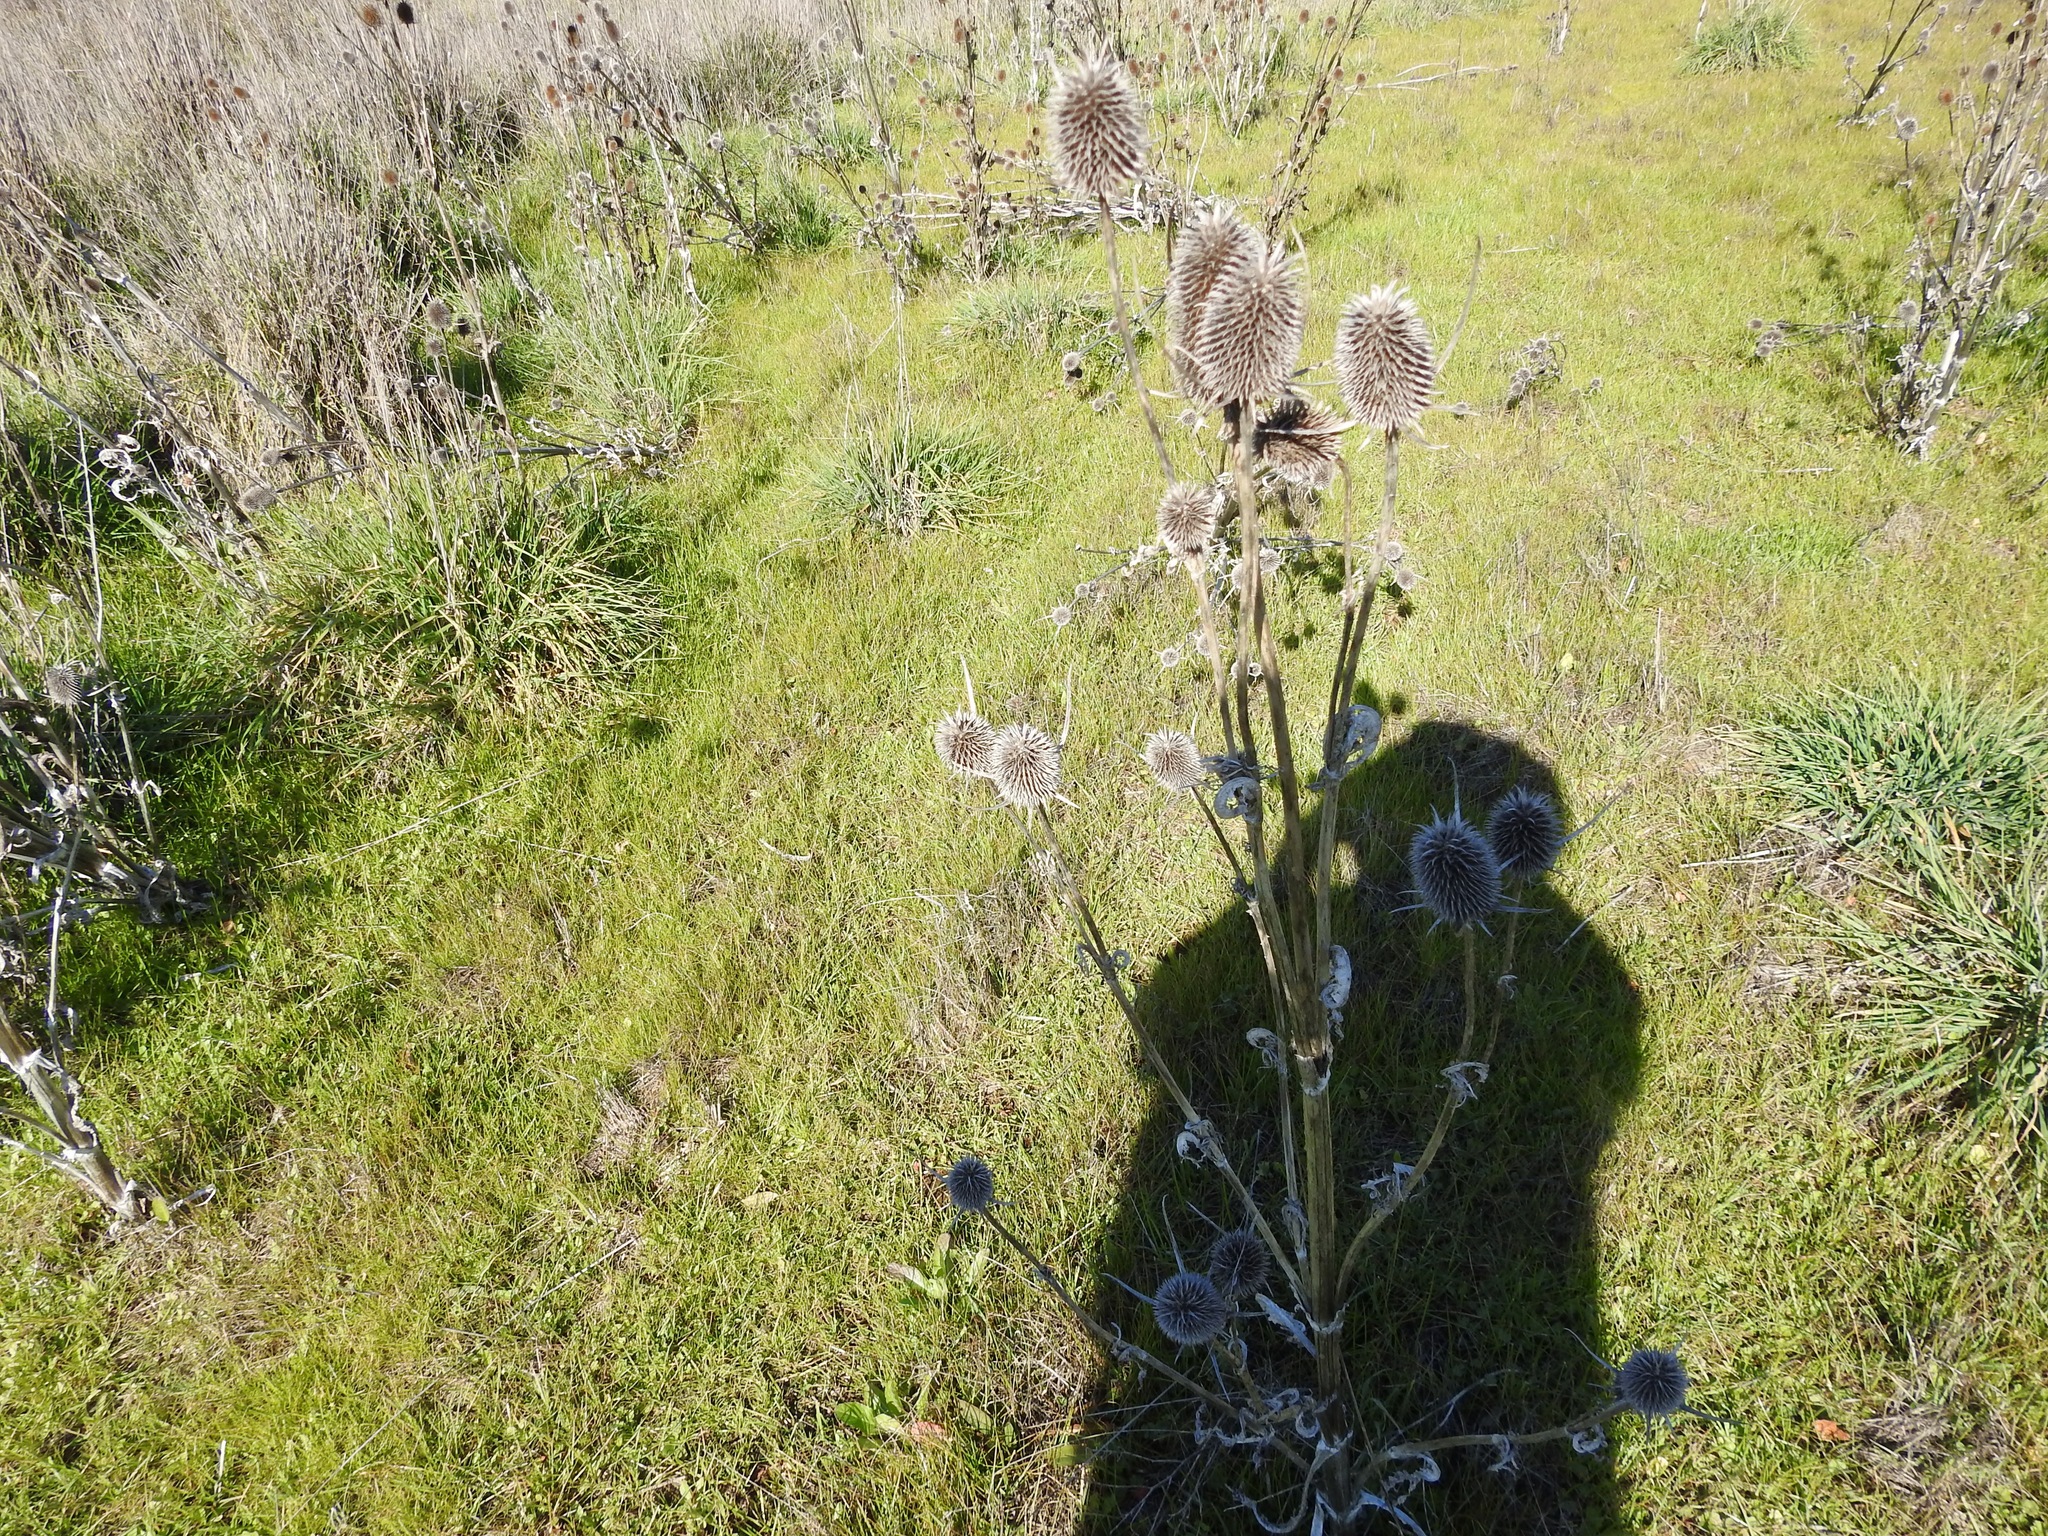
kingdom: Plantae
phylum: Tracheophyta
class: Magnoliopsida
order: Dipsacales
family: Caprifoliaceae
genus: Dipsacus
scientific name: Dipsacus sativus
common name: Fuller's teasel
